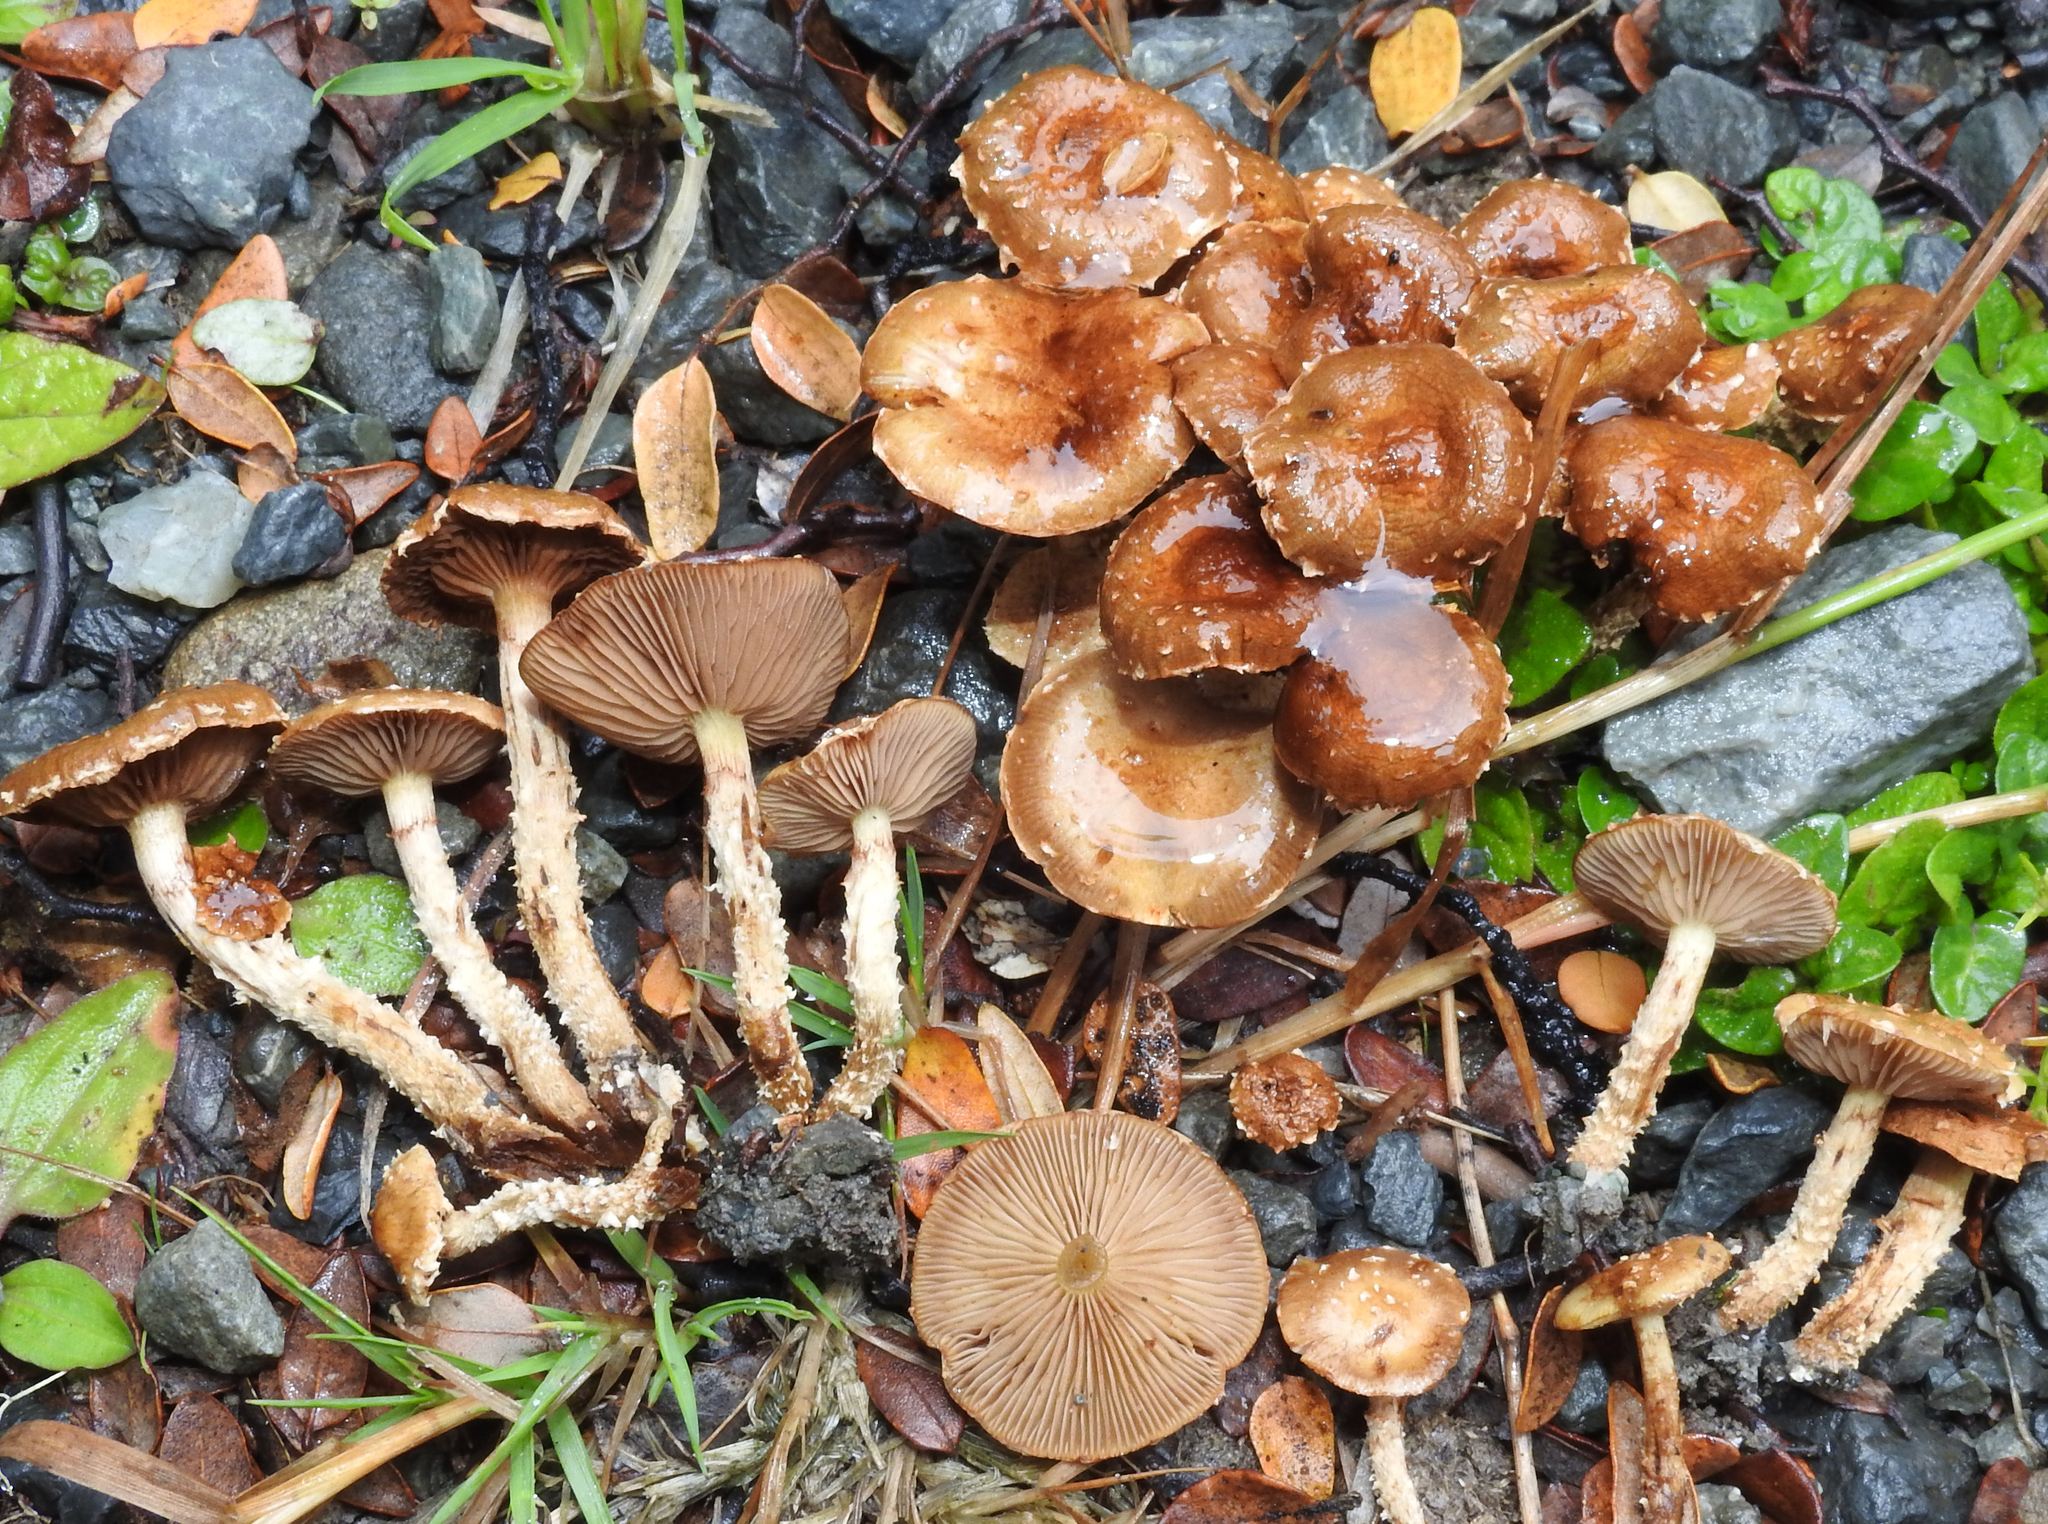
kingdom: Fungi
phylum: Basidiomycota
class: Agaricomycetes
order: Agaricales
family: Strophariaceae
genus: Pholiota
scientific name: Pholiota subflammans
